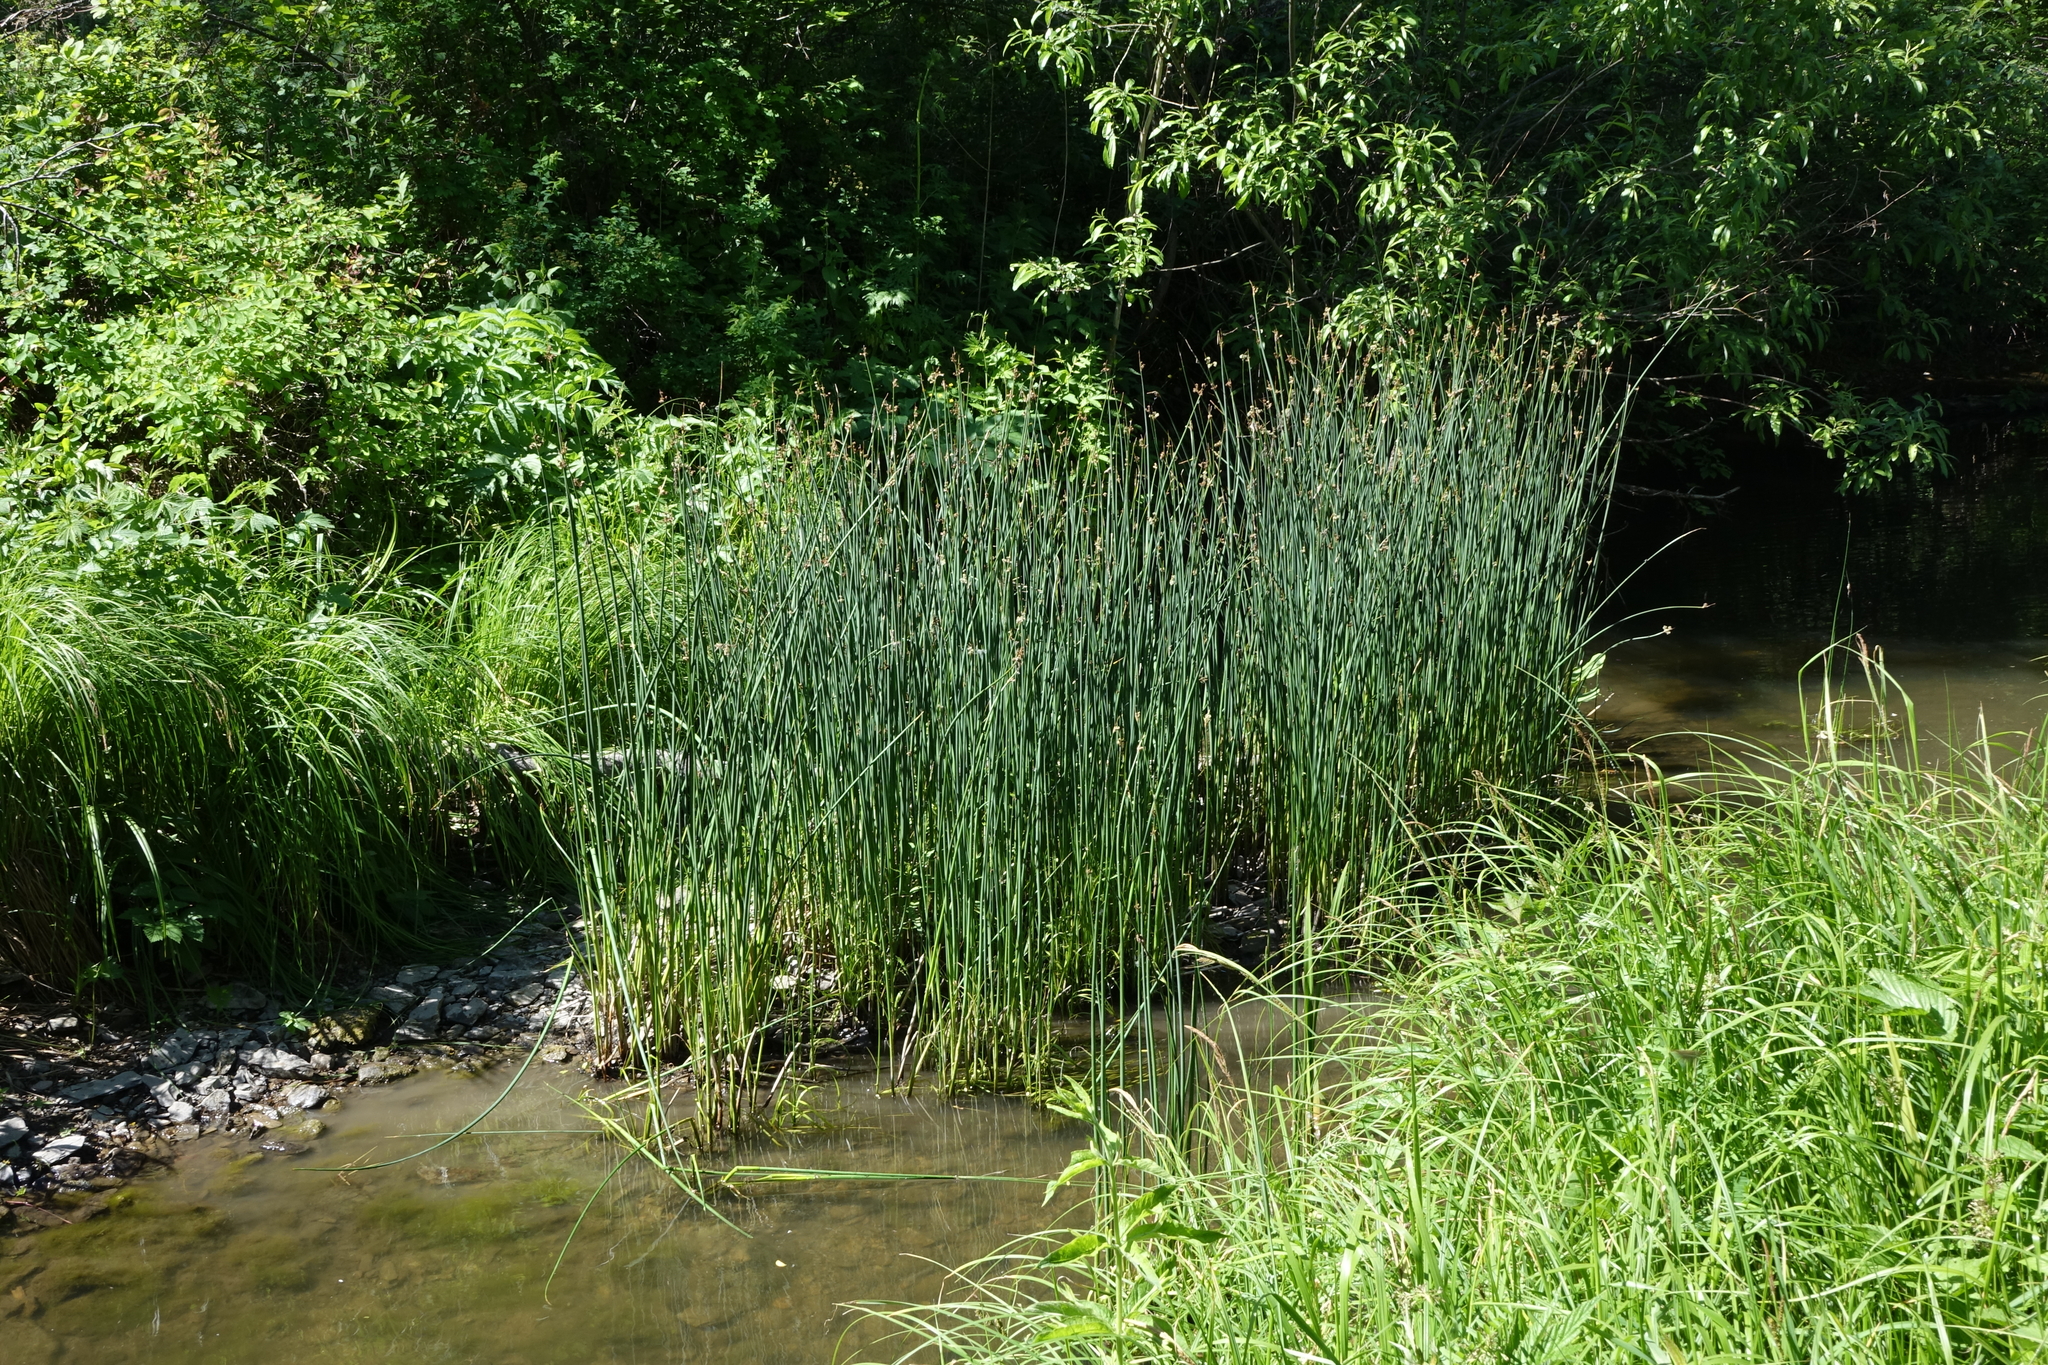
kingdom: Plantae
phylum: Tracheophyta
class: Liliopsida
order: Poales
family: Cyperaceae
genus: Schoenoplectus
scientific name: Schoenoplectus lacustris
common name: Common club-rush
